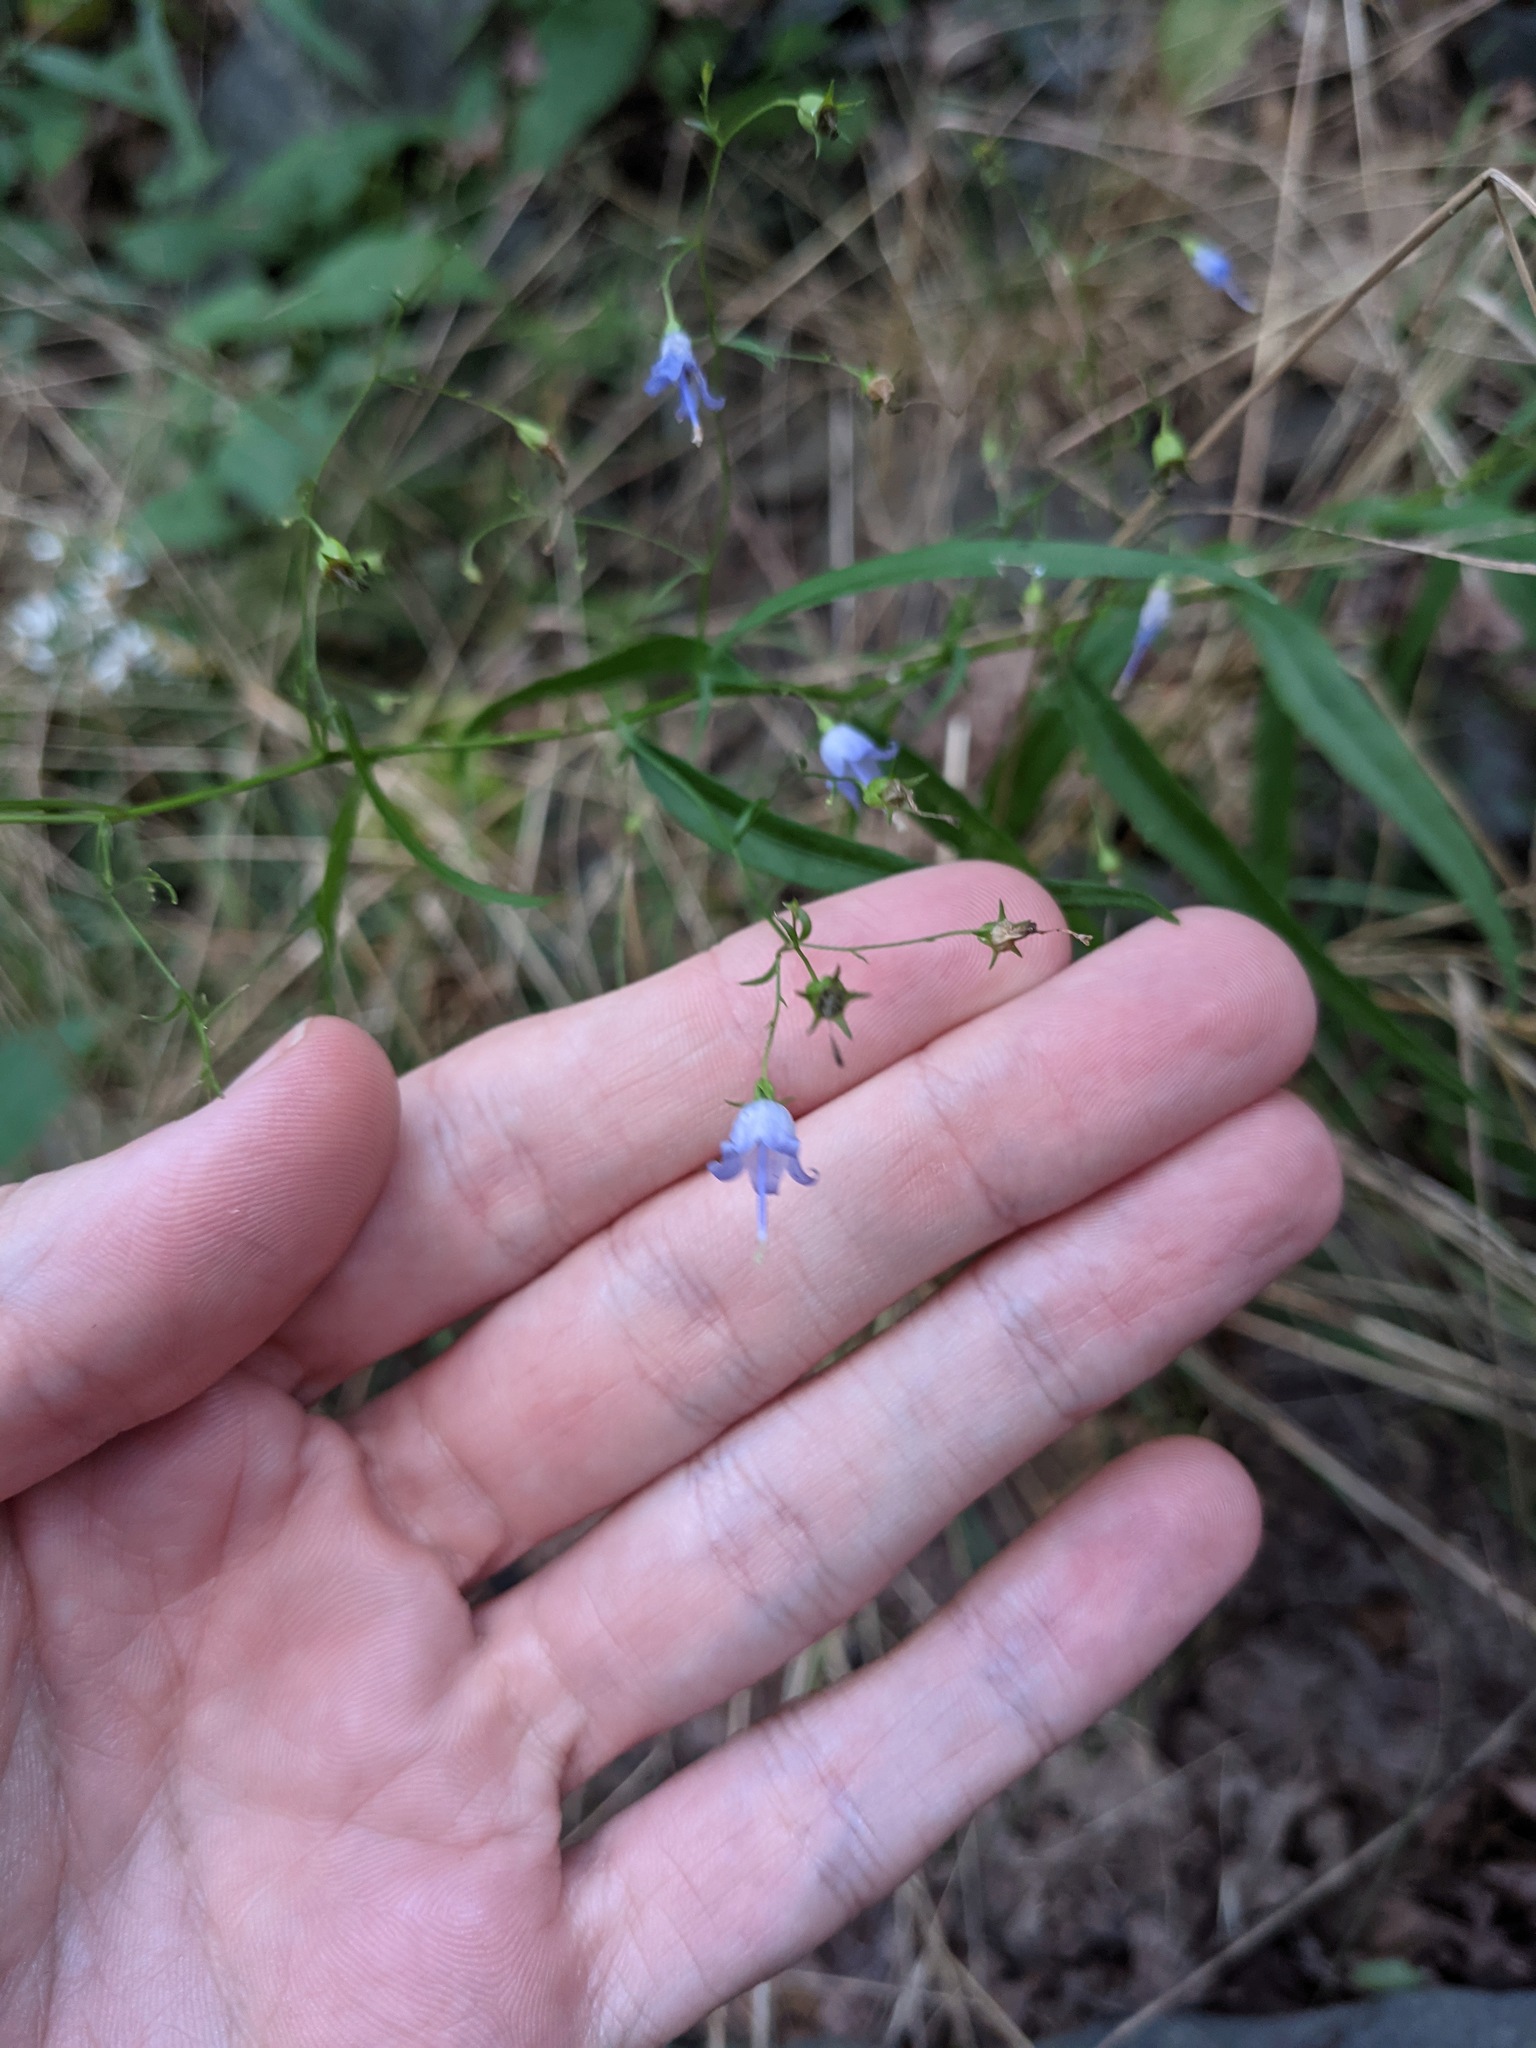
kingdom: Plantae
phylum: Tracheophyta
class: Magnoliopsida
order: Asterales
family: Campanulaceae
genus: Campanula
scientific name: Campanula divaricata
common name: Appalachian bellflower
